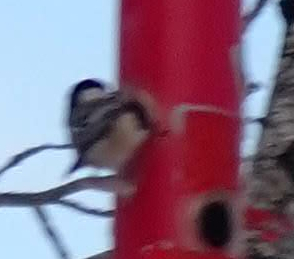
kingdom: Animalia
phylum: Chordata
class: Aves
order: Passeriformes
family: Paridae
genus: Poecile
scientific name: Poecile atricapillus
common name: Black-capped chickadee
